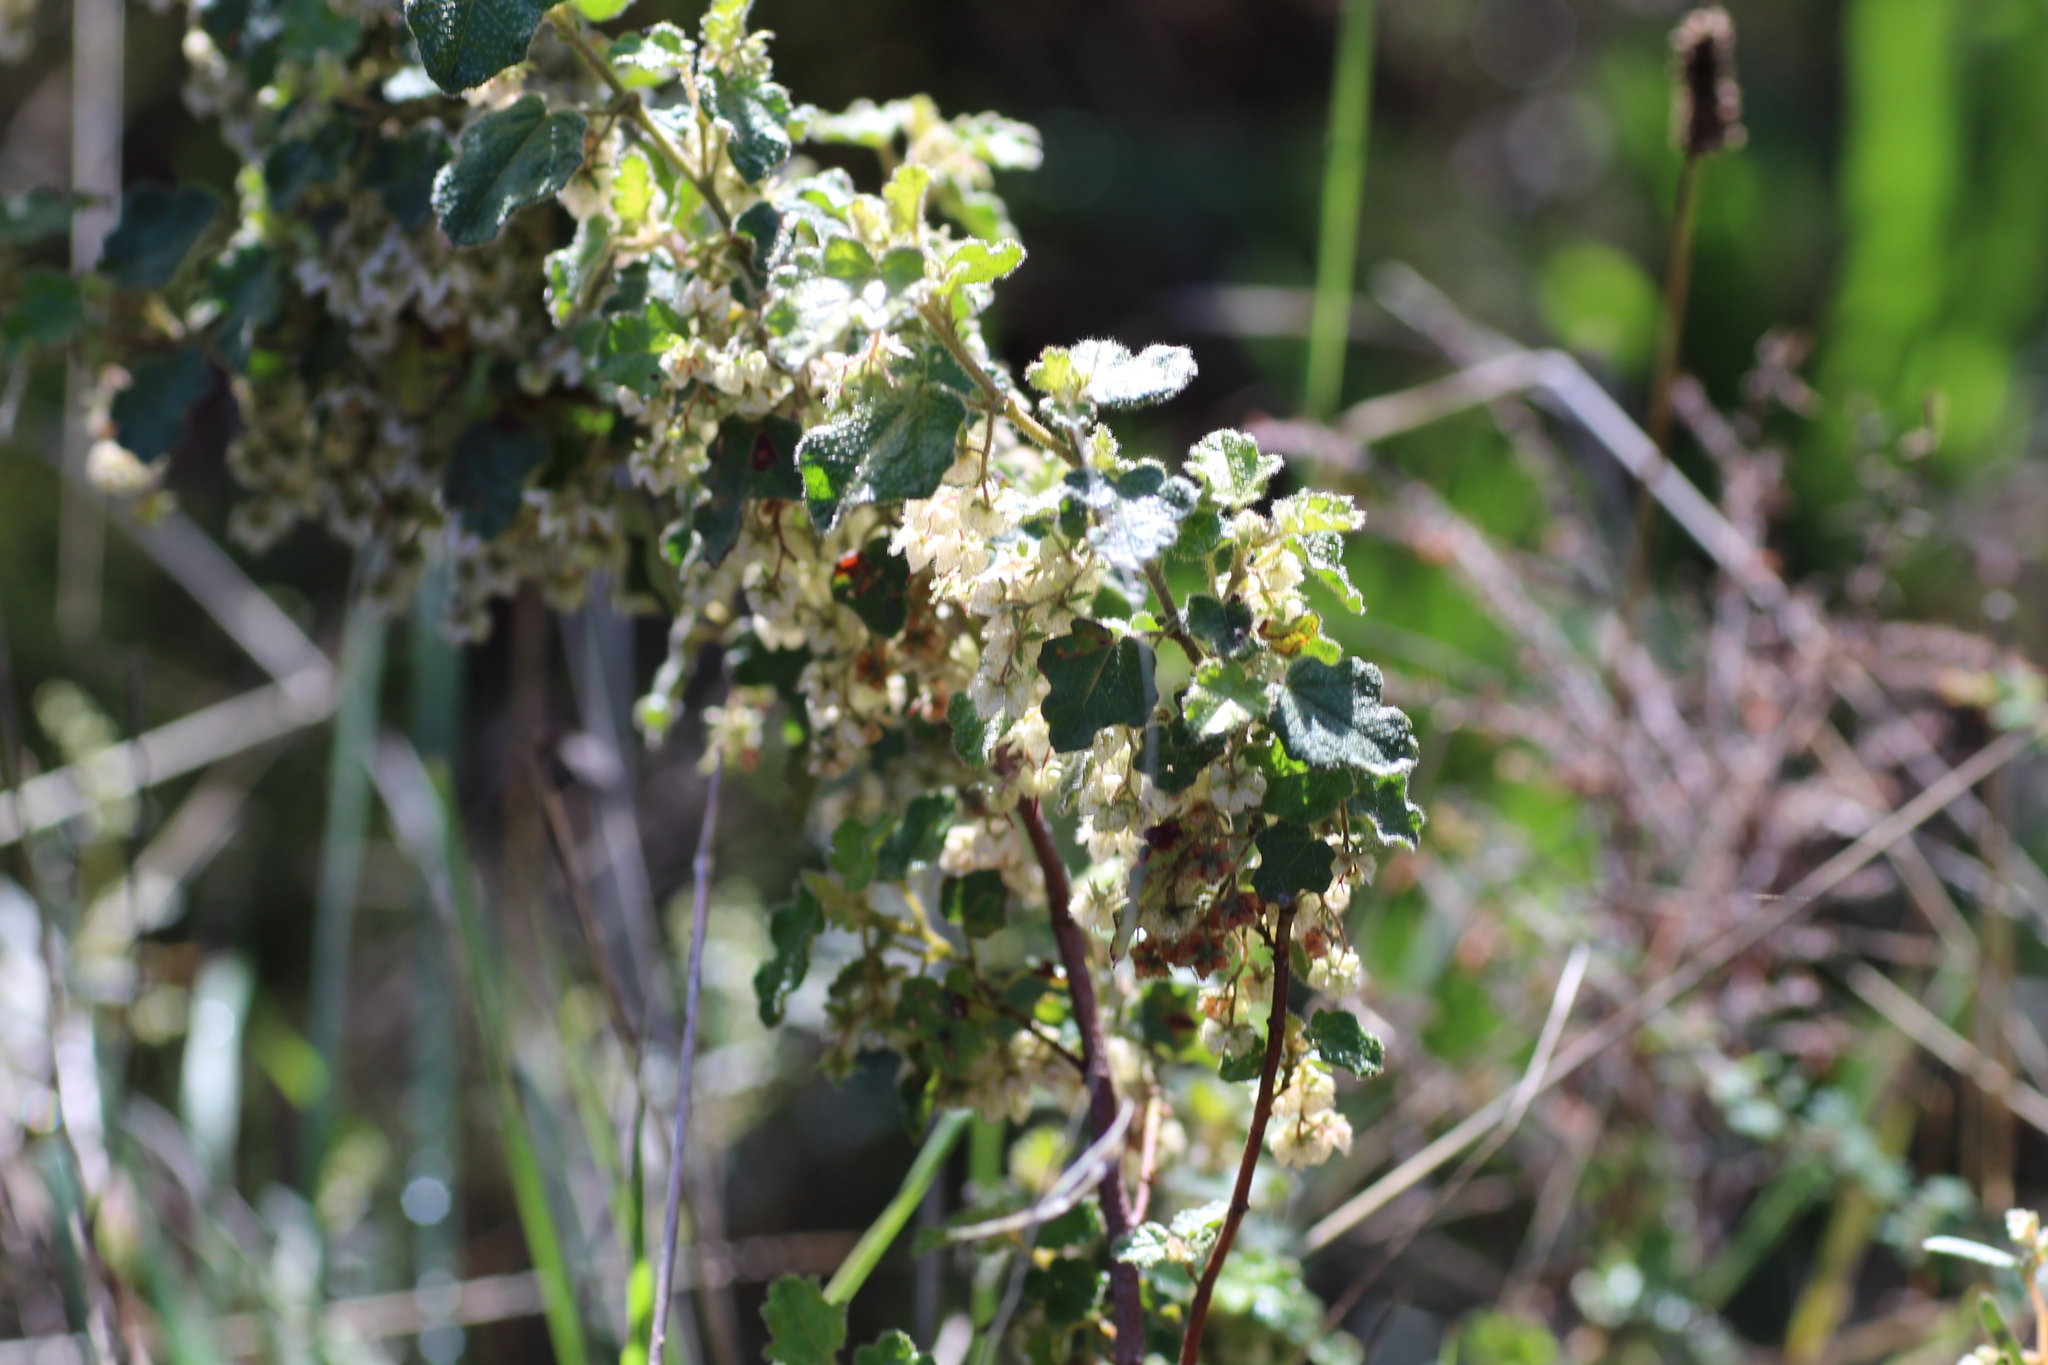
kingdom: Plantae
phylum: Tracheophyta
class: Magnoliopsida
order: Malvales
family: Malvaceae
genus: Thomasia
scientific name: Thomasia foliosa
